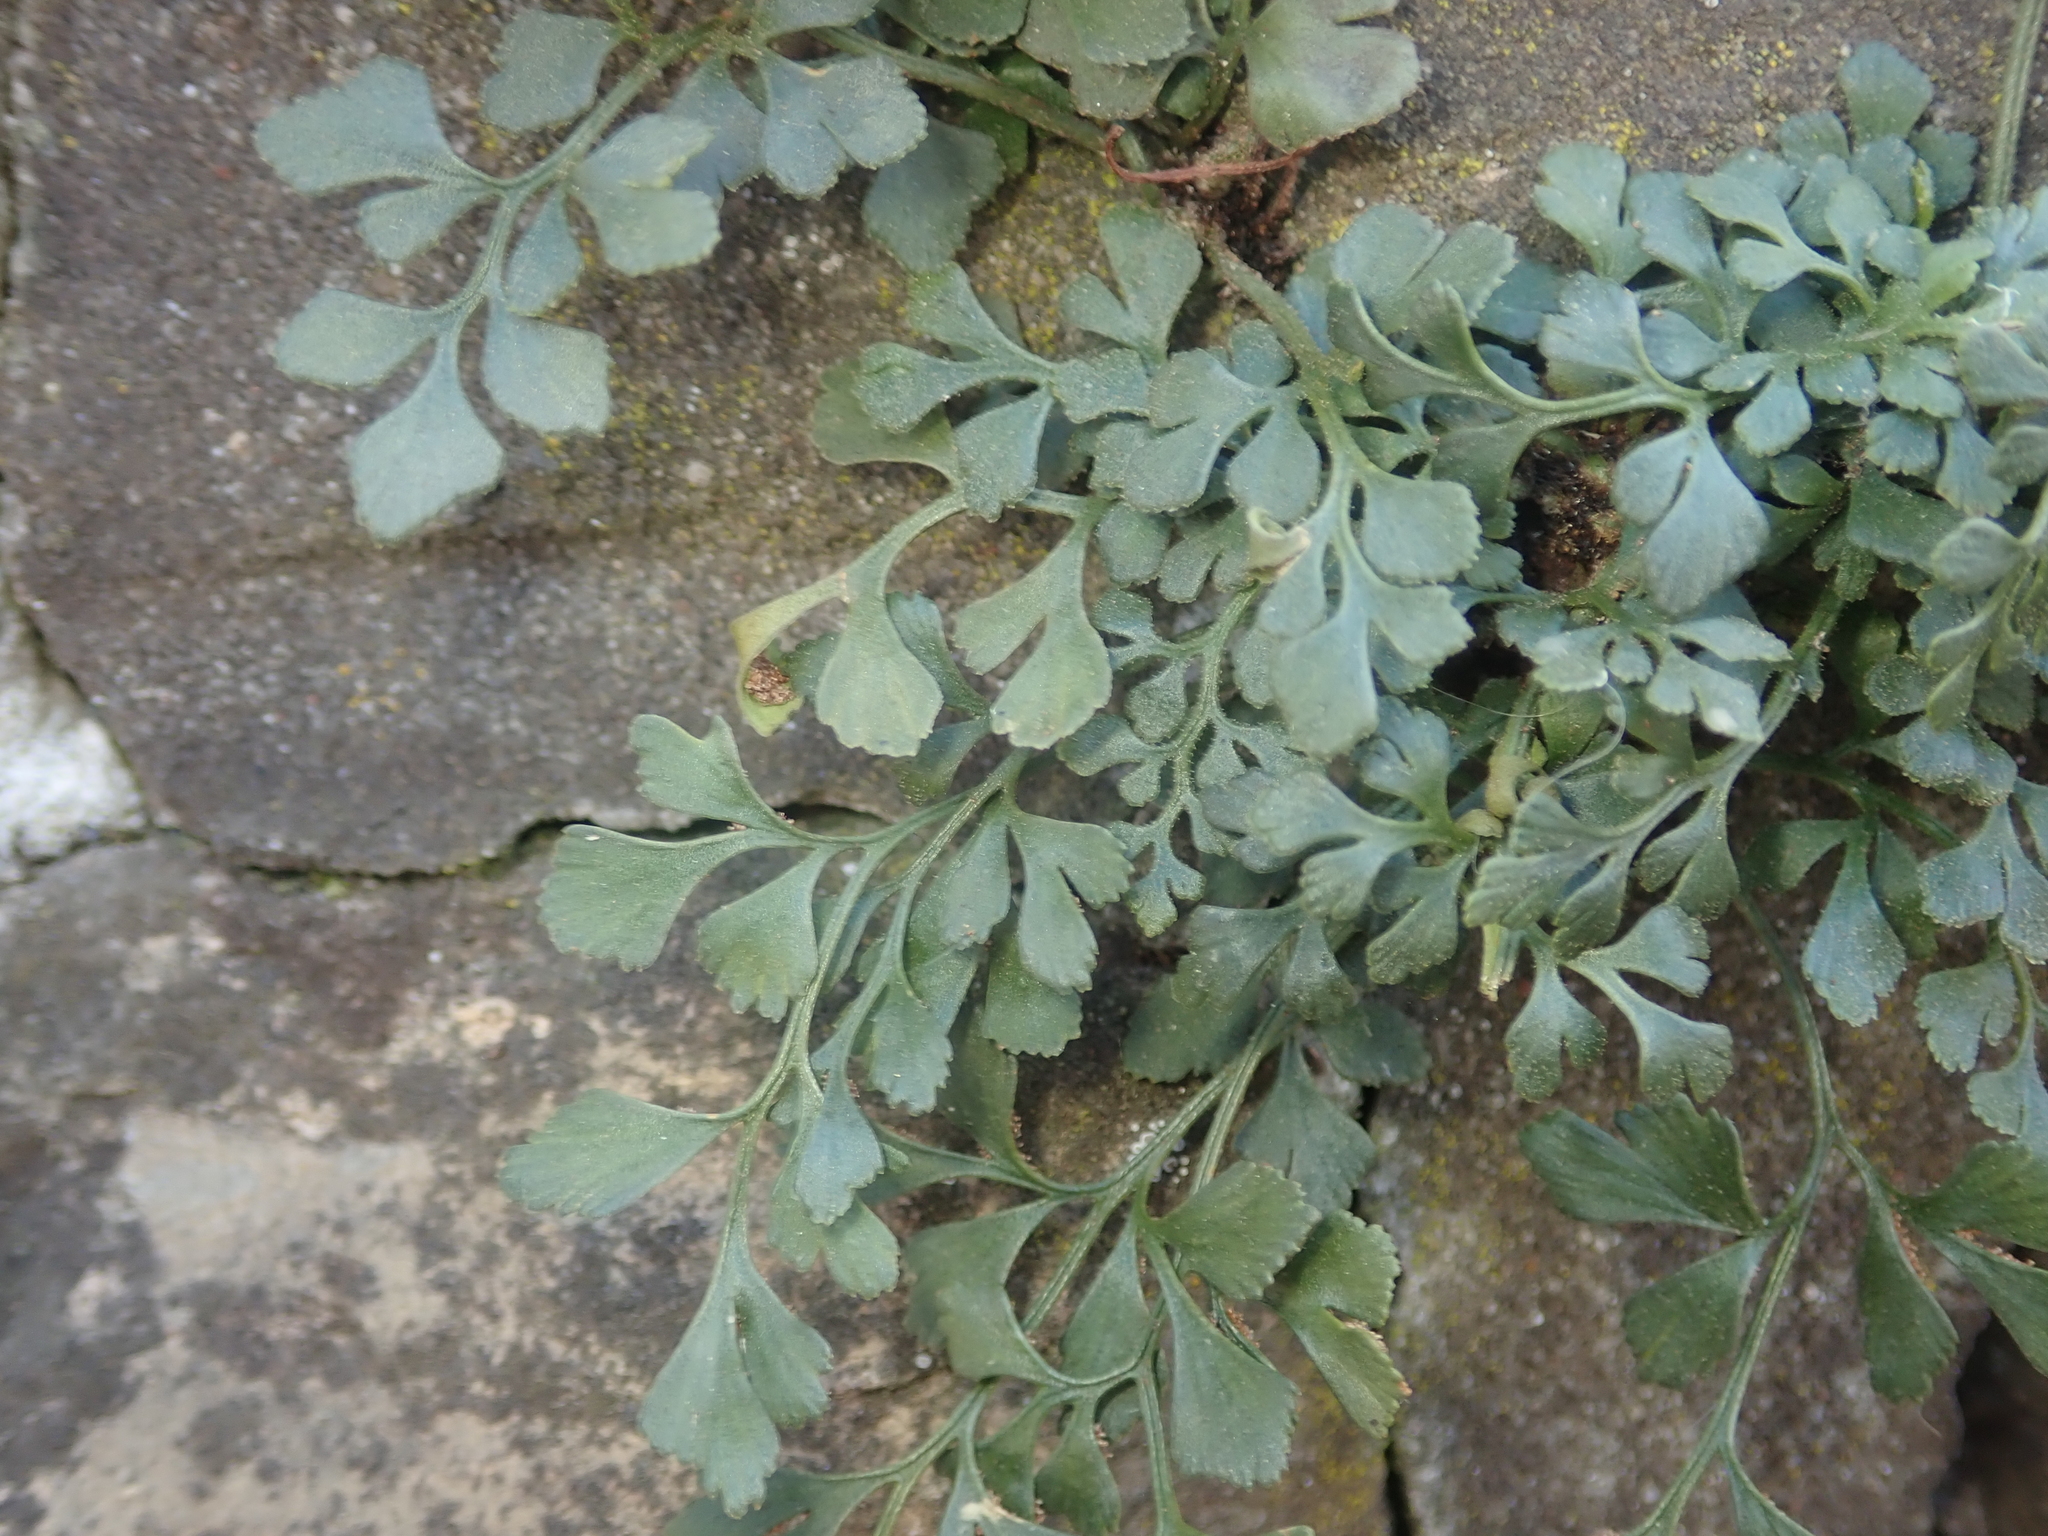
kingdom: Plantae
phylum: Tracheophyta
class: Polypodiopsida
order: Polypodiales
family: Aspleniaceae
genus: Asplenium
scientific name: Asplenium ruta-muraria
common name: Wall-rue
